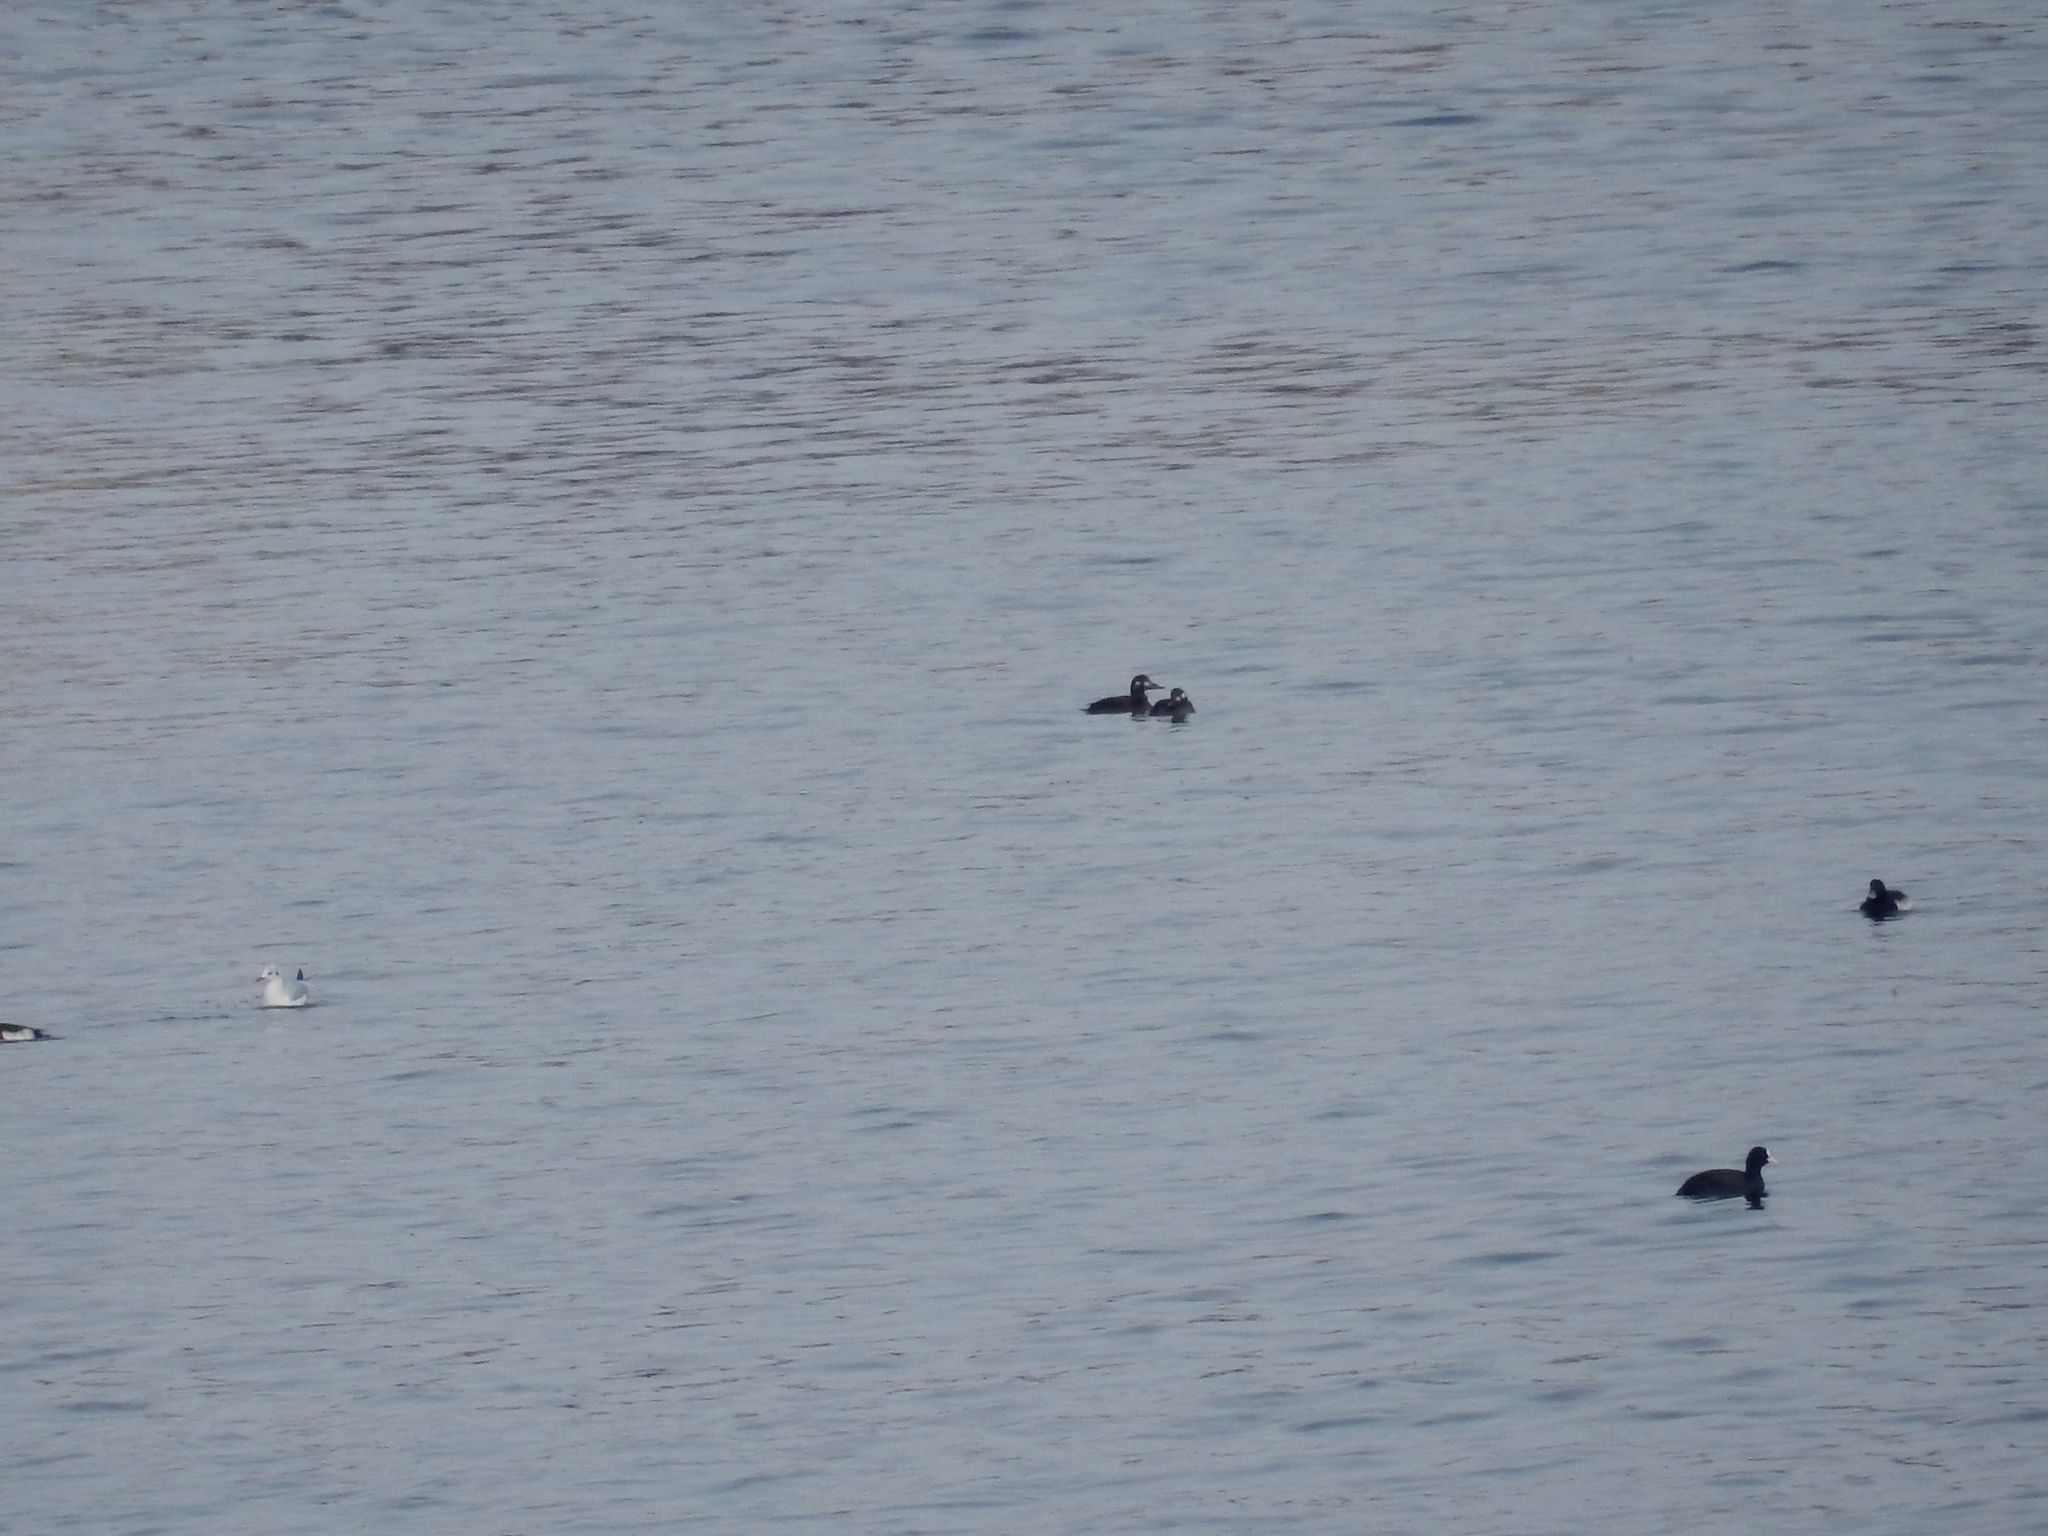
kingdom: Animalia
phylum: Chordata
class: Aves
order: Anseriformes
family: Anatidae
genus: Melanitta
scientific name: Melanitta fusca
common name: Velvet scoter
